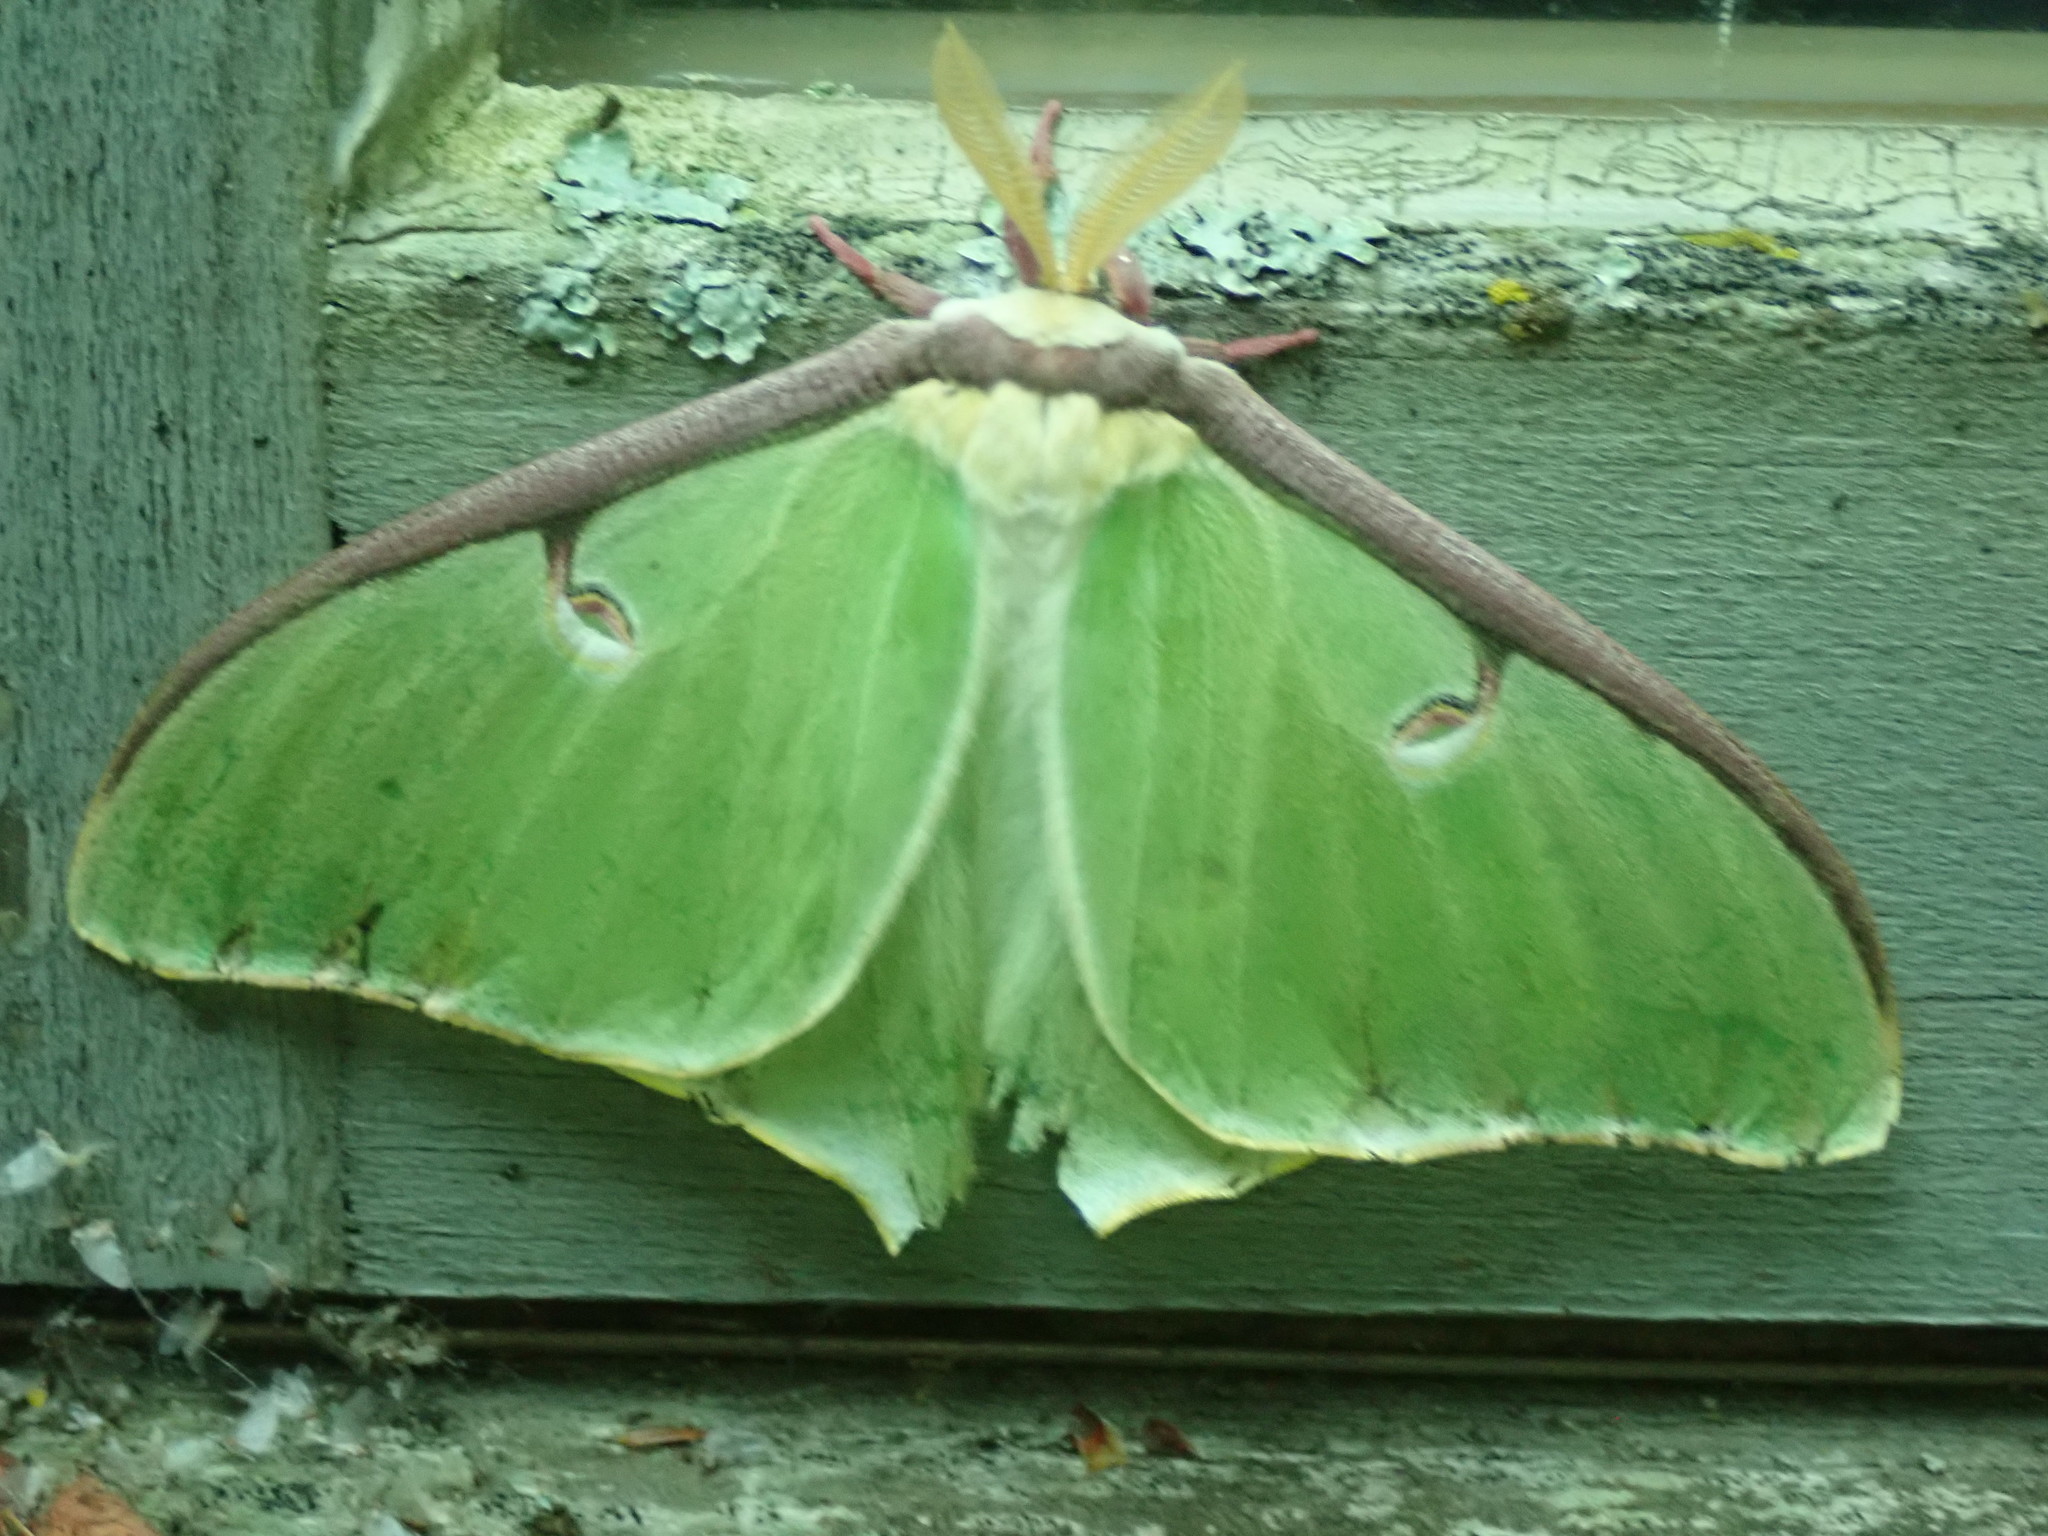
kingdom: Animalia
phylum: Arthropoda
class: Insecta
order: Lepidoptera
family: Saturniidae
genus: Actias
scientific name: Actias luna
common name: Luna moth
